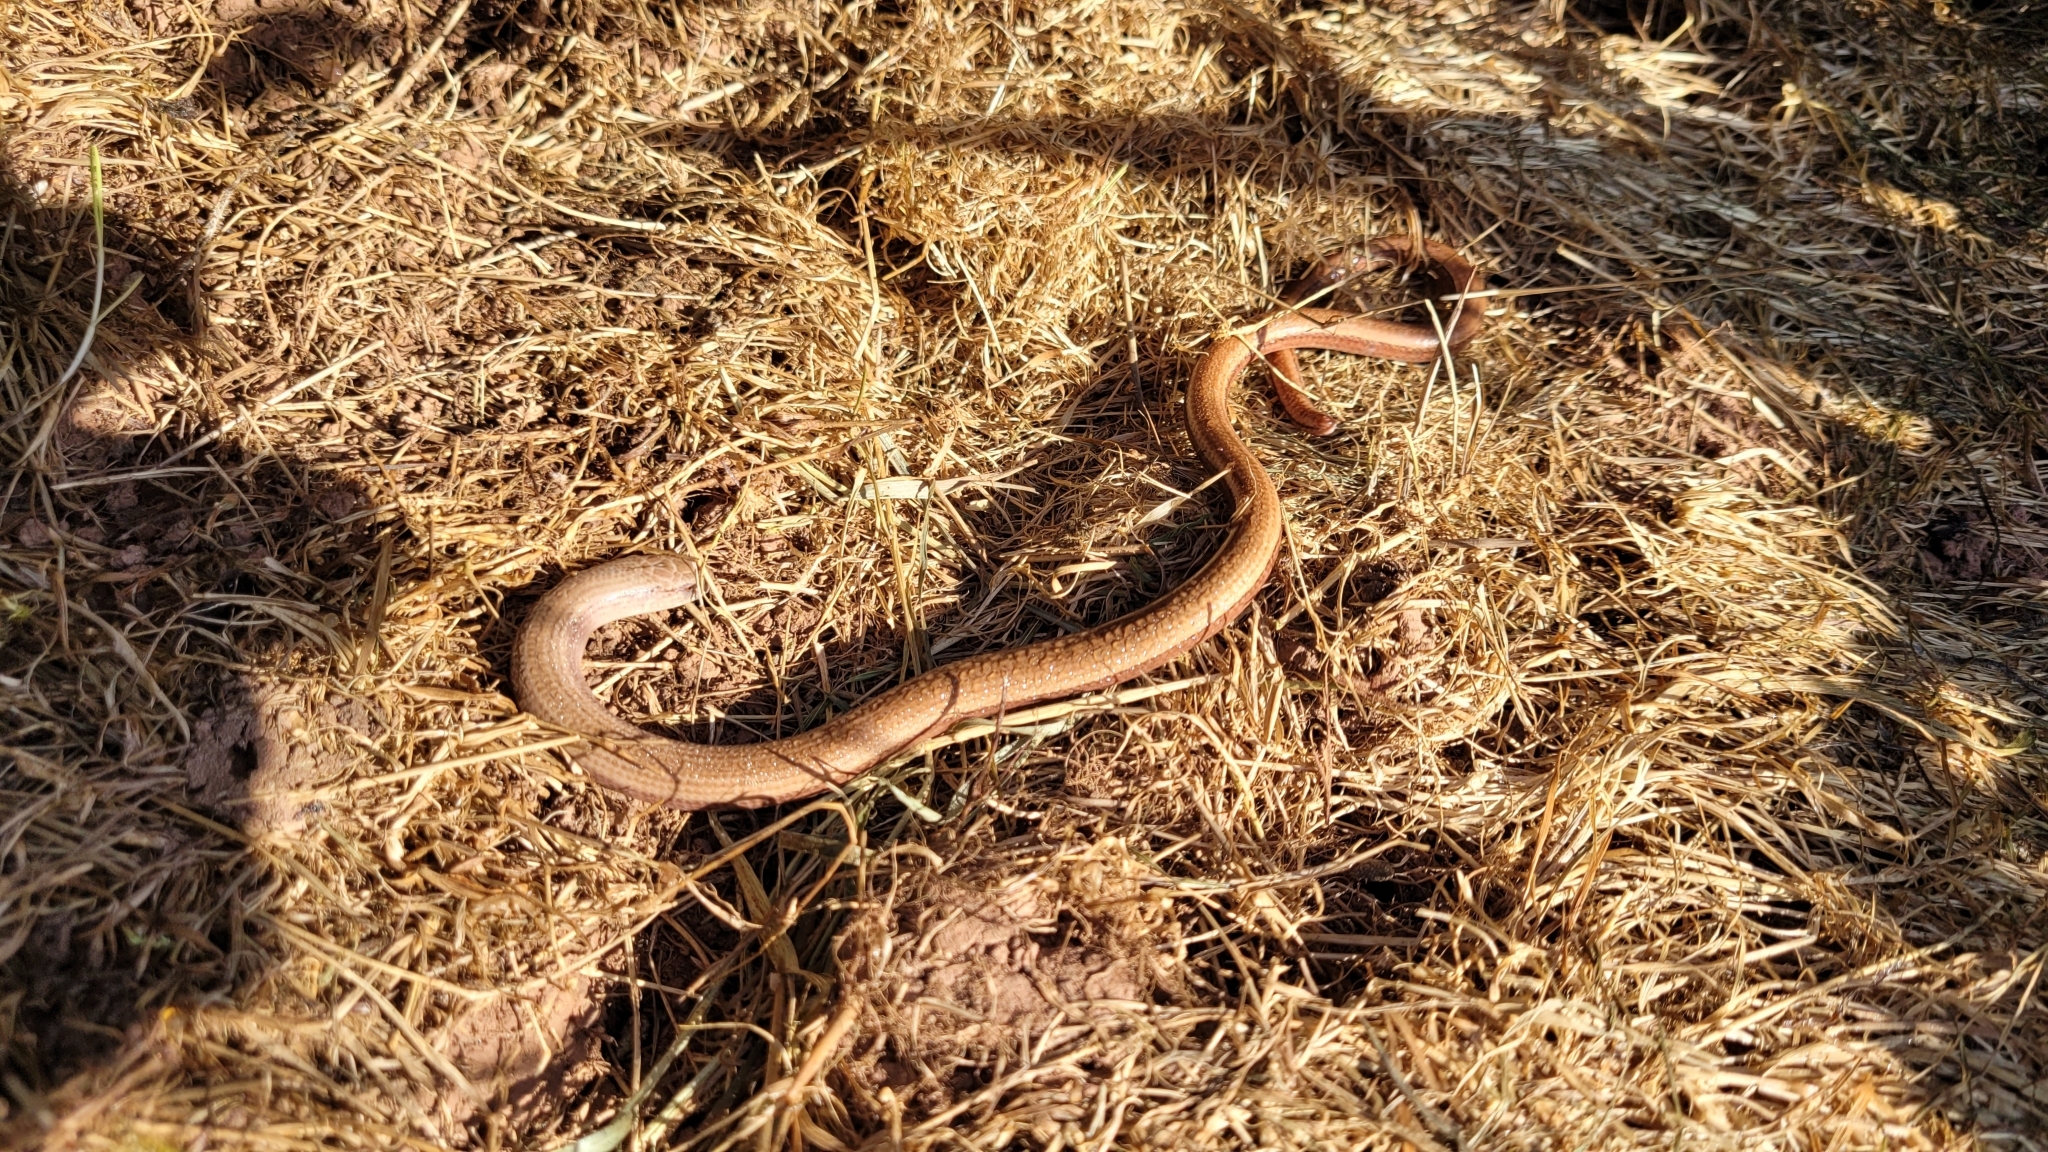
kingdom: Animalia
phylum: Chordata
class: Squamata
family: Anguidae
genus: Anguis
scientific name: Anguis fragilis
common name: Slow worm
